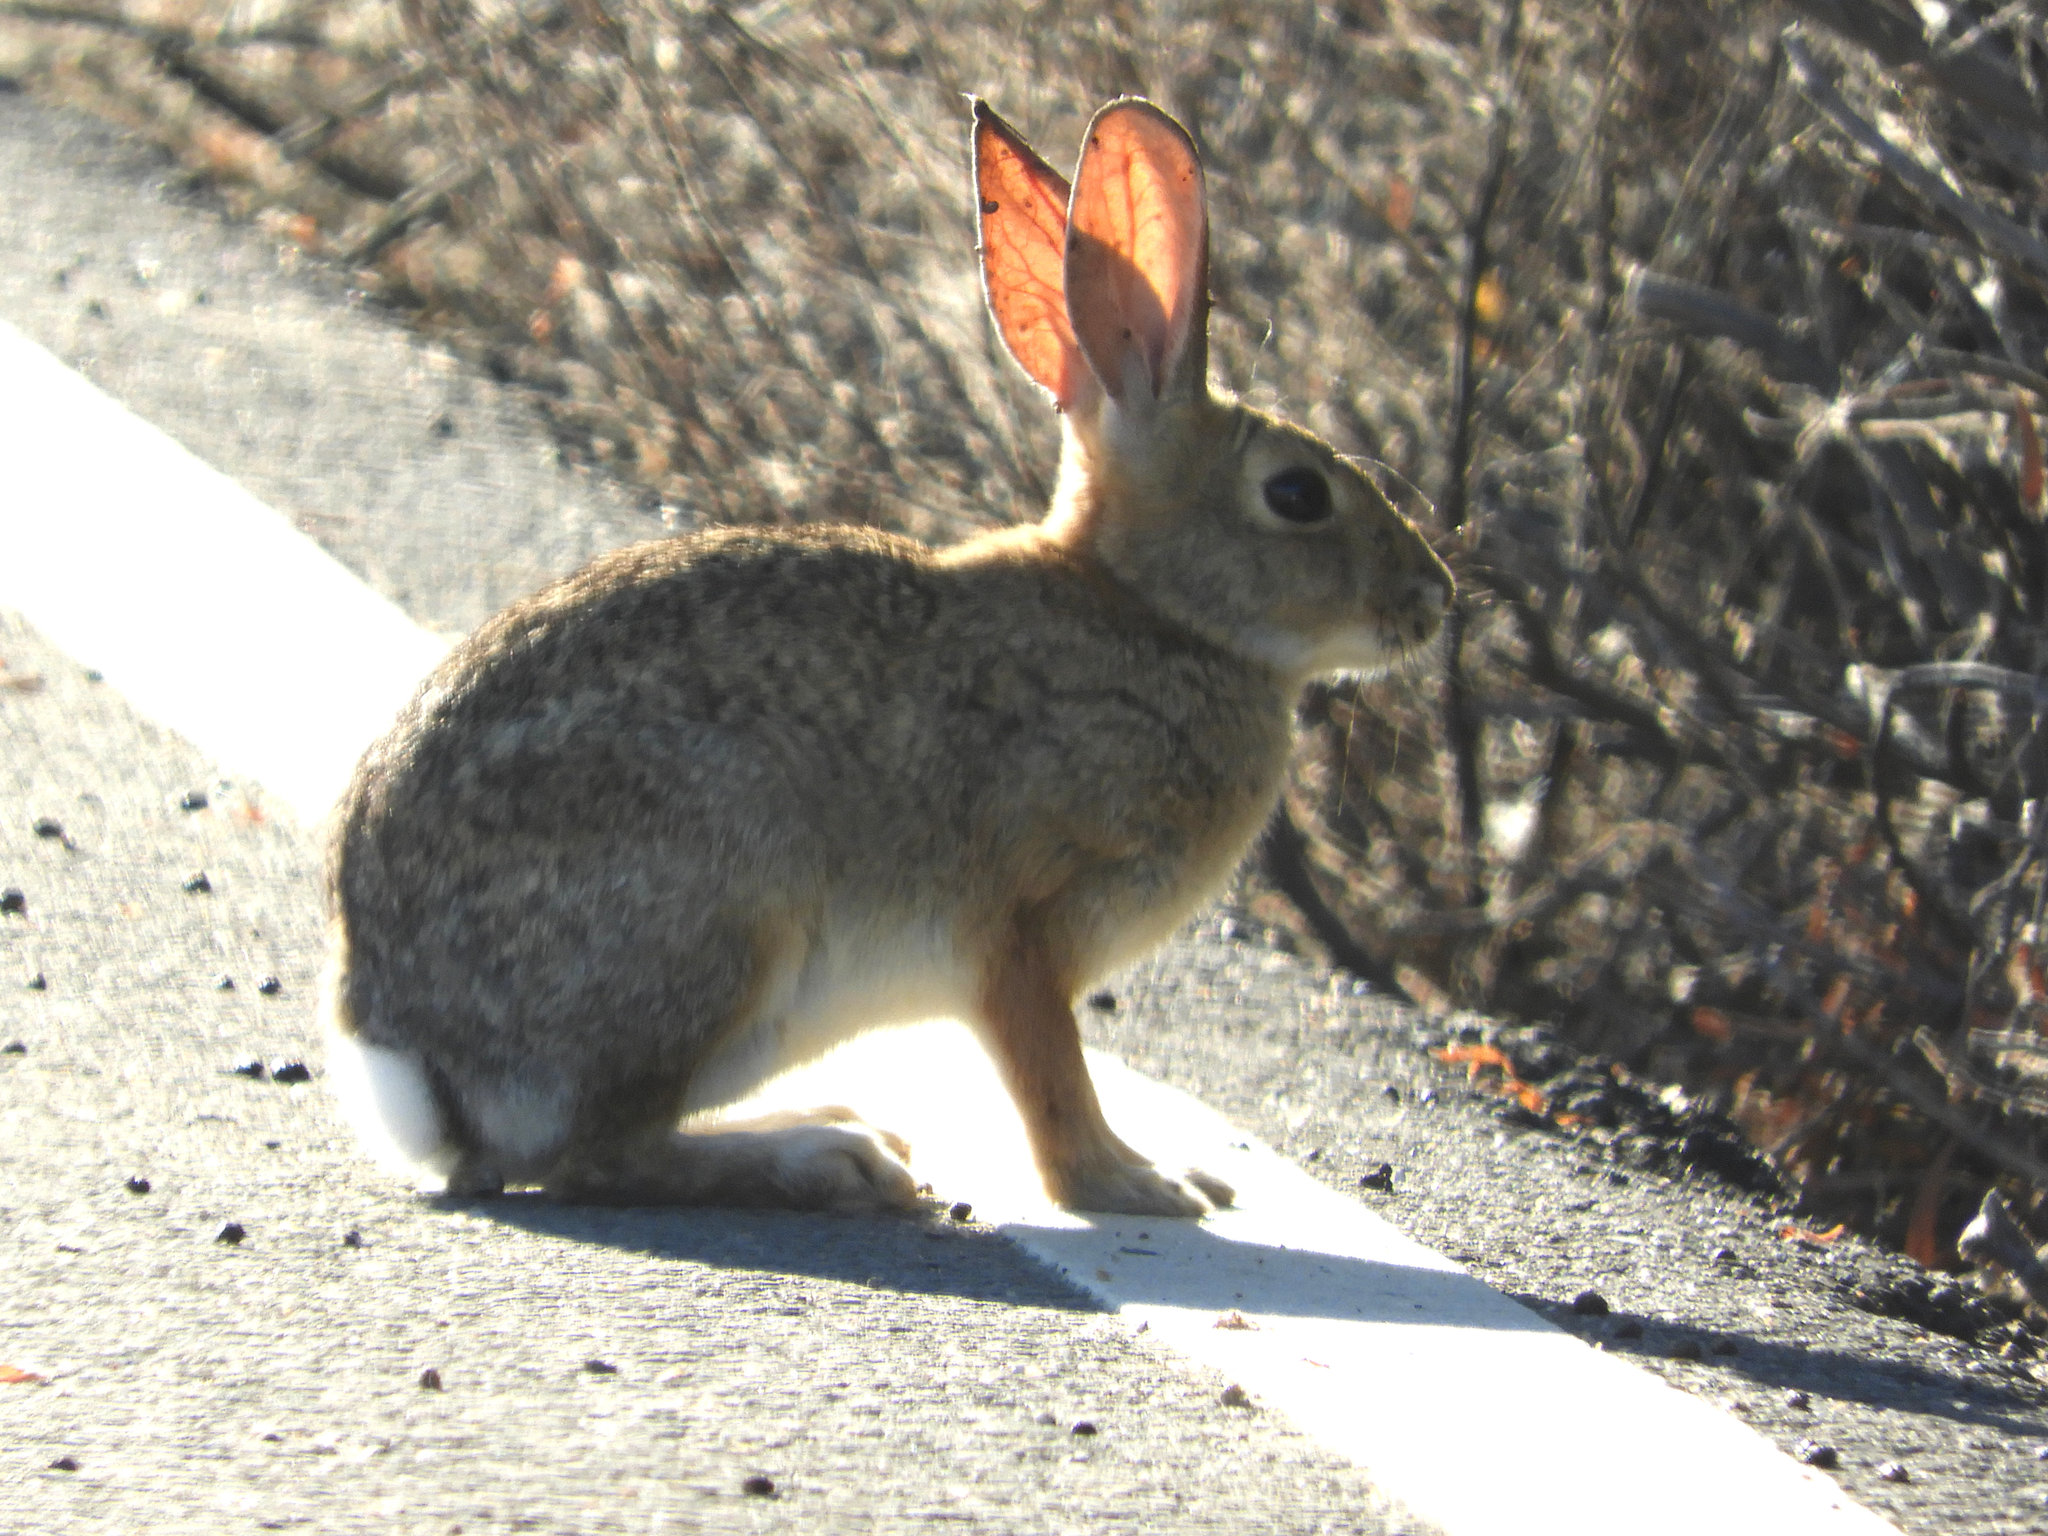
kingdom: Animalia
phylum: Chordata
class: Mammalia
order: Lagomorpha
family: Leporidae
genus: Sylvilagus
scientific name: Sylvilagus audubonii
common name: Desert cottontail
